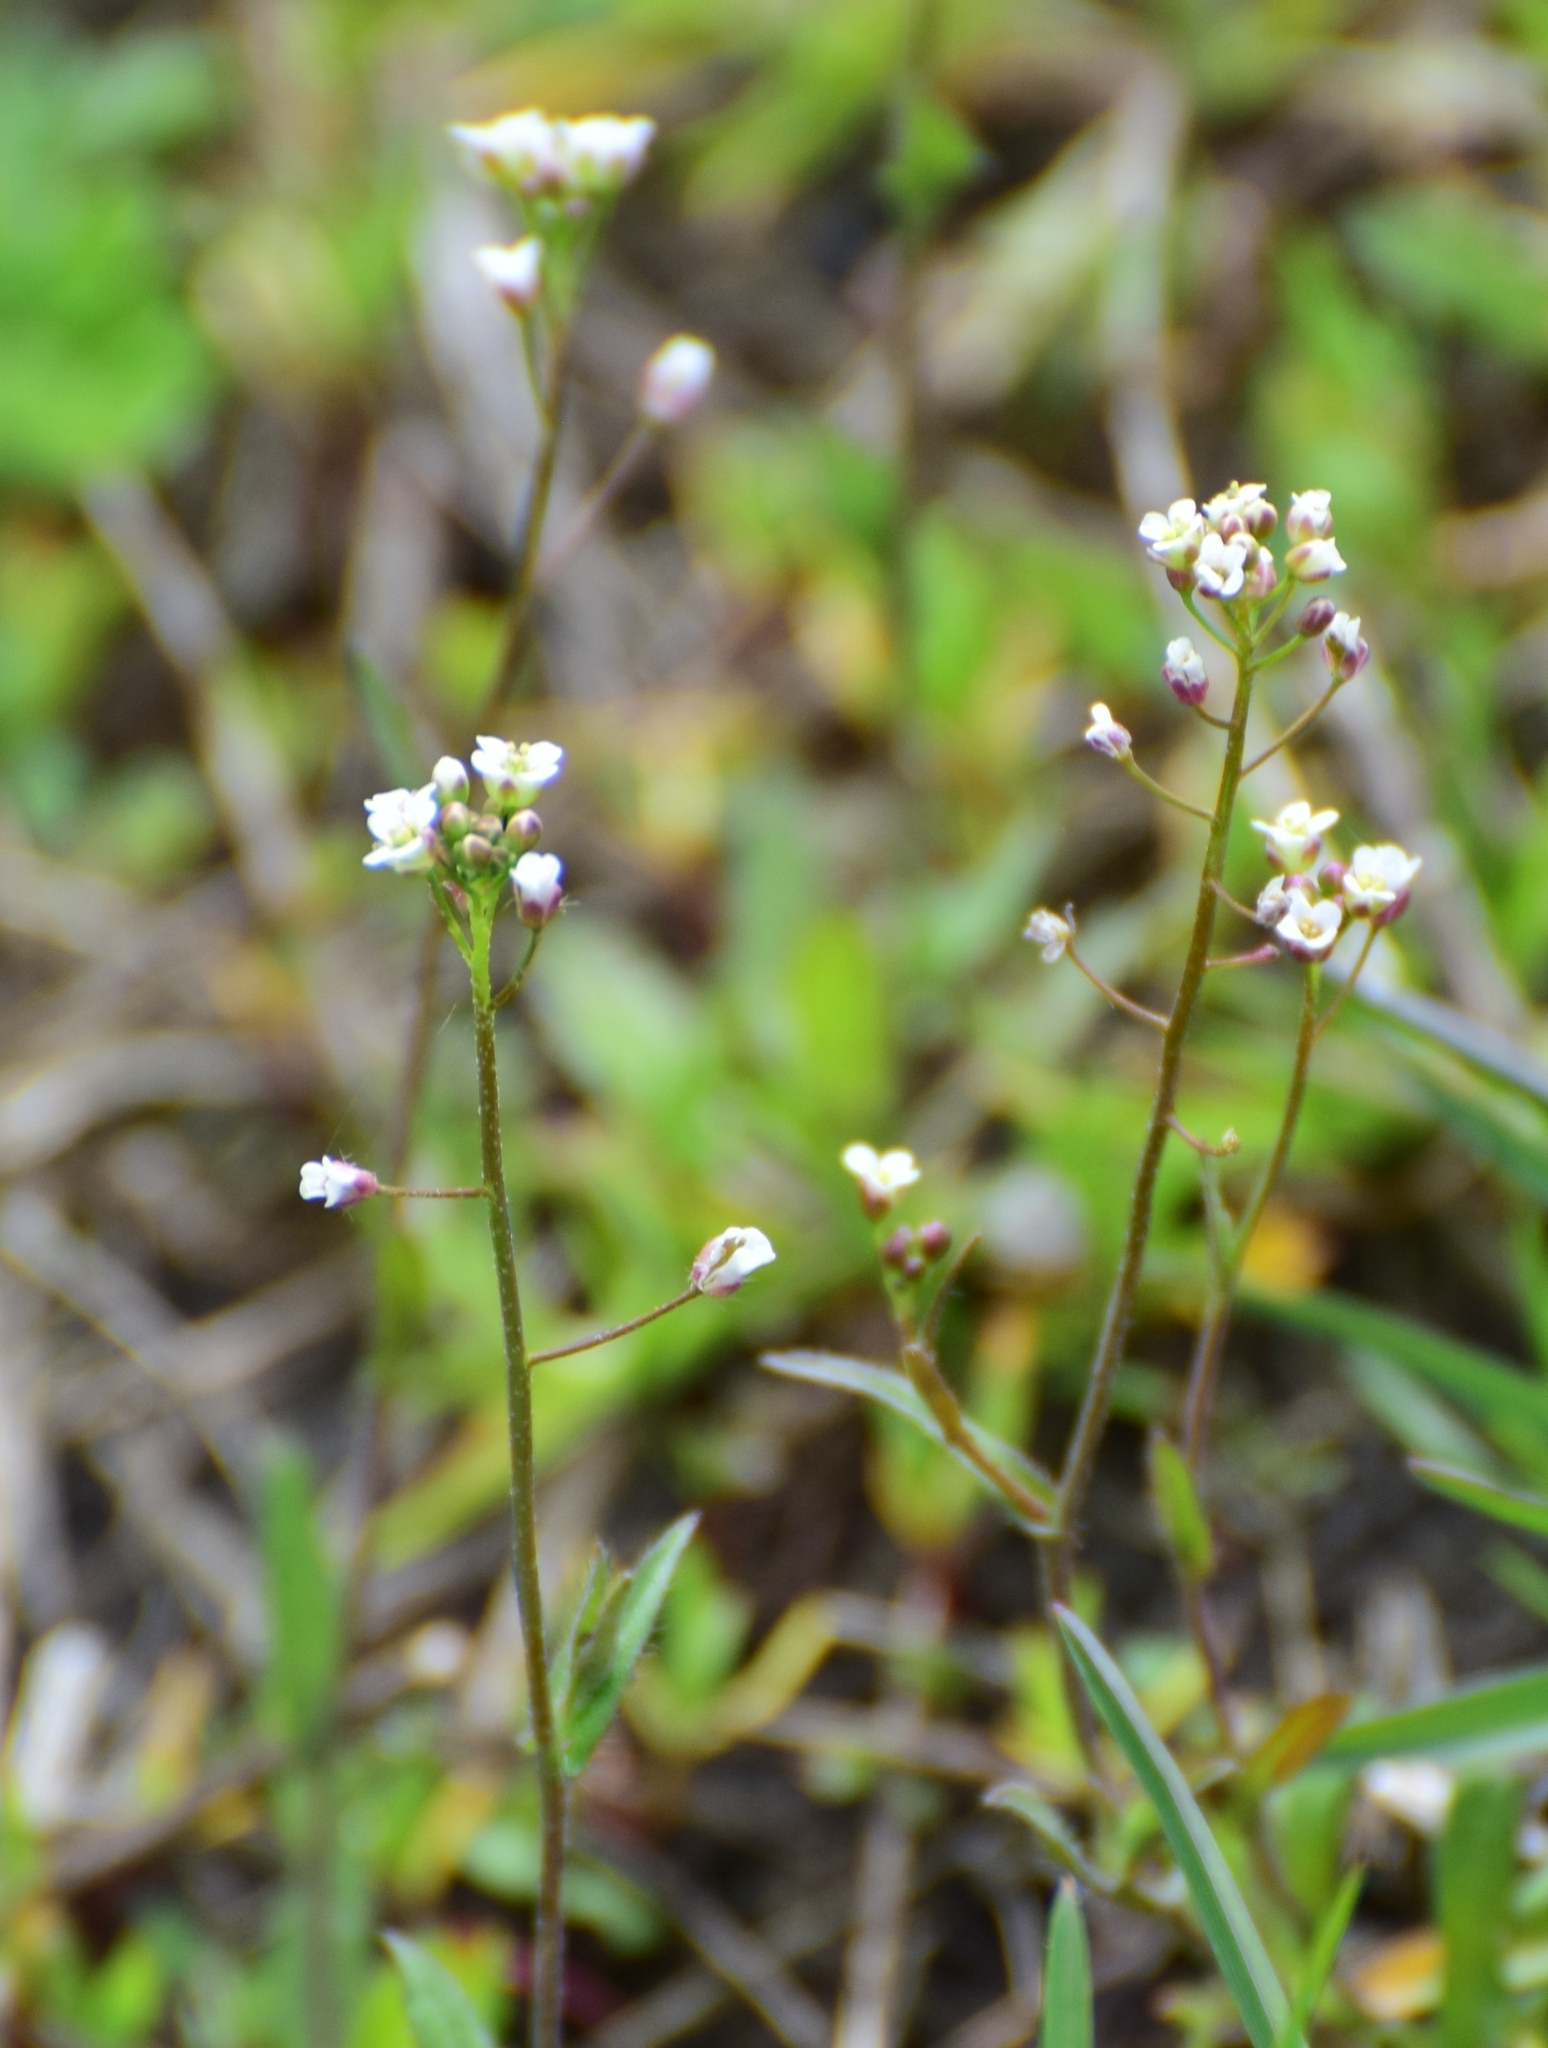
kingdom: Plantae
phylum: Tracheophyta
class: Magnoliopsida
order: Brassicales
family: Brassicaceae
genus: Capsella
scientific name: Capsella bursa-pastoris
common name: Shepherd's purse
